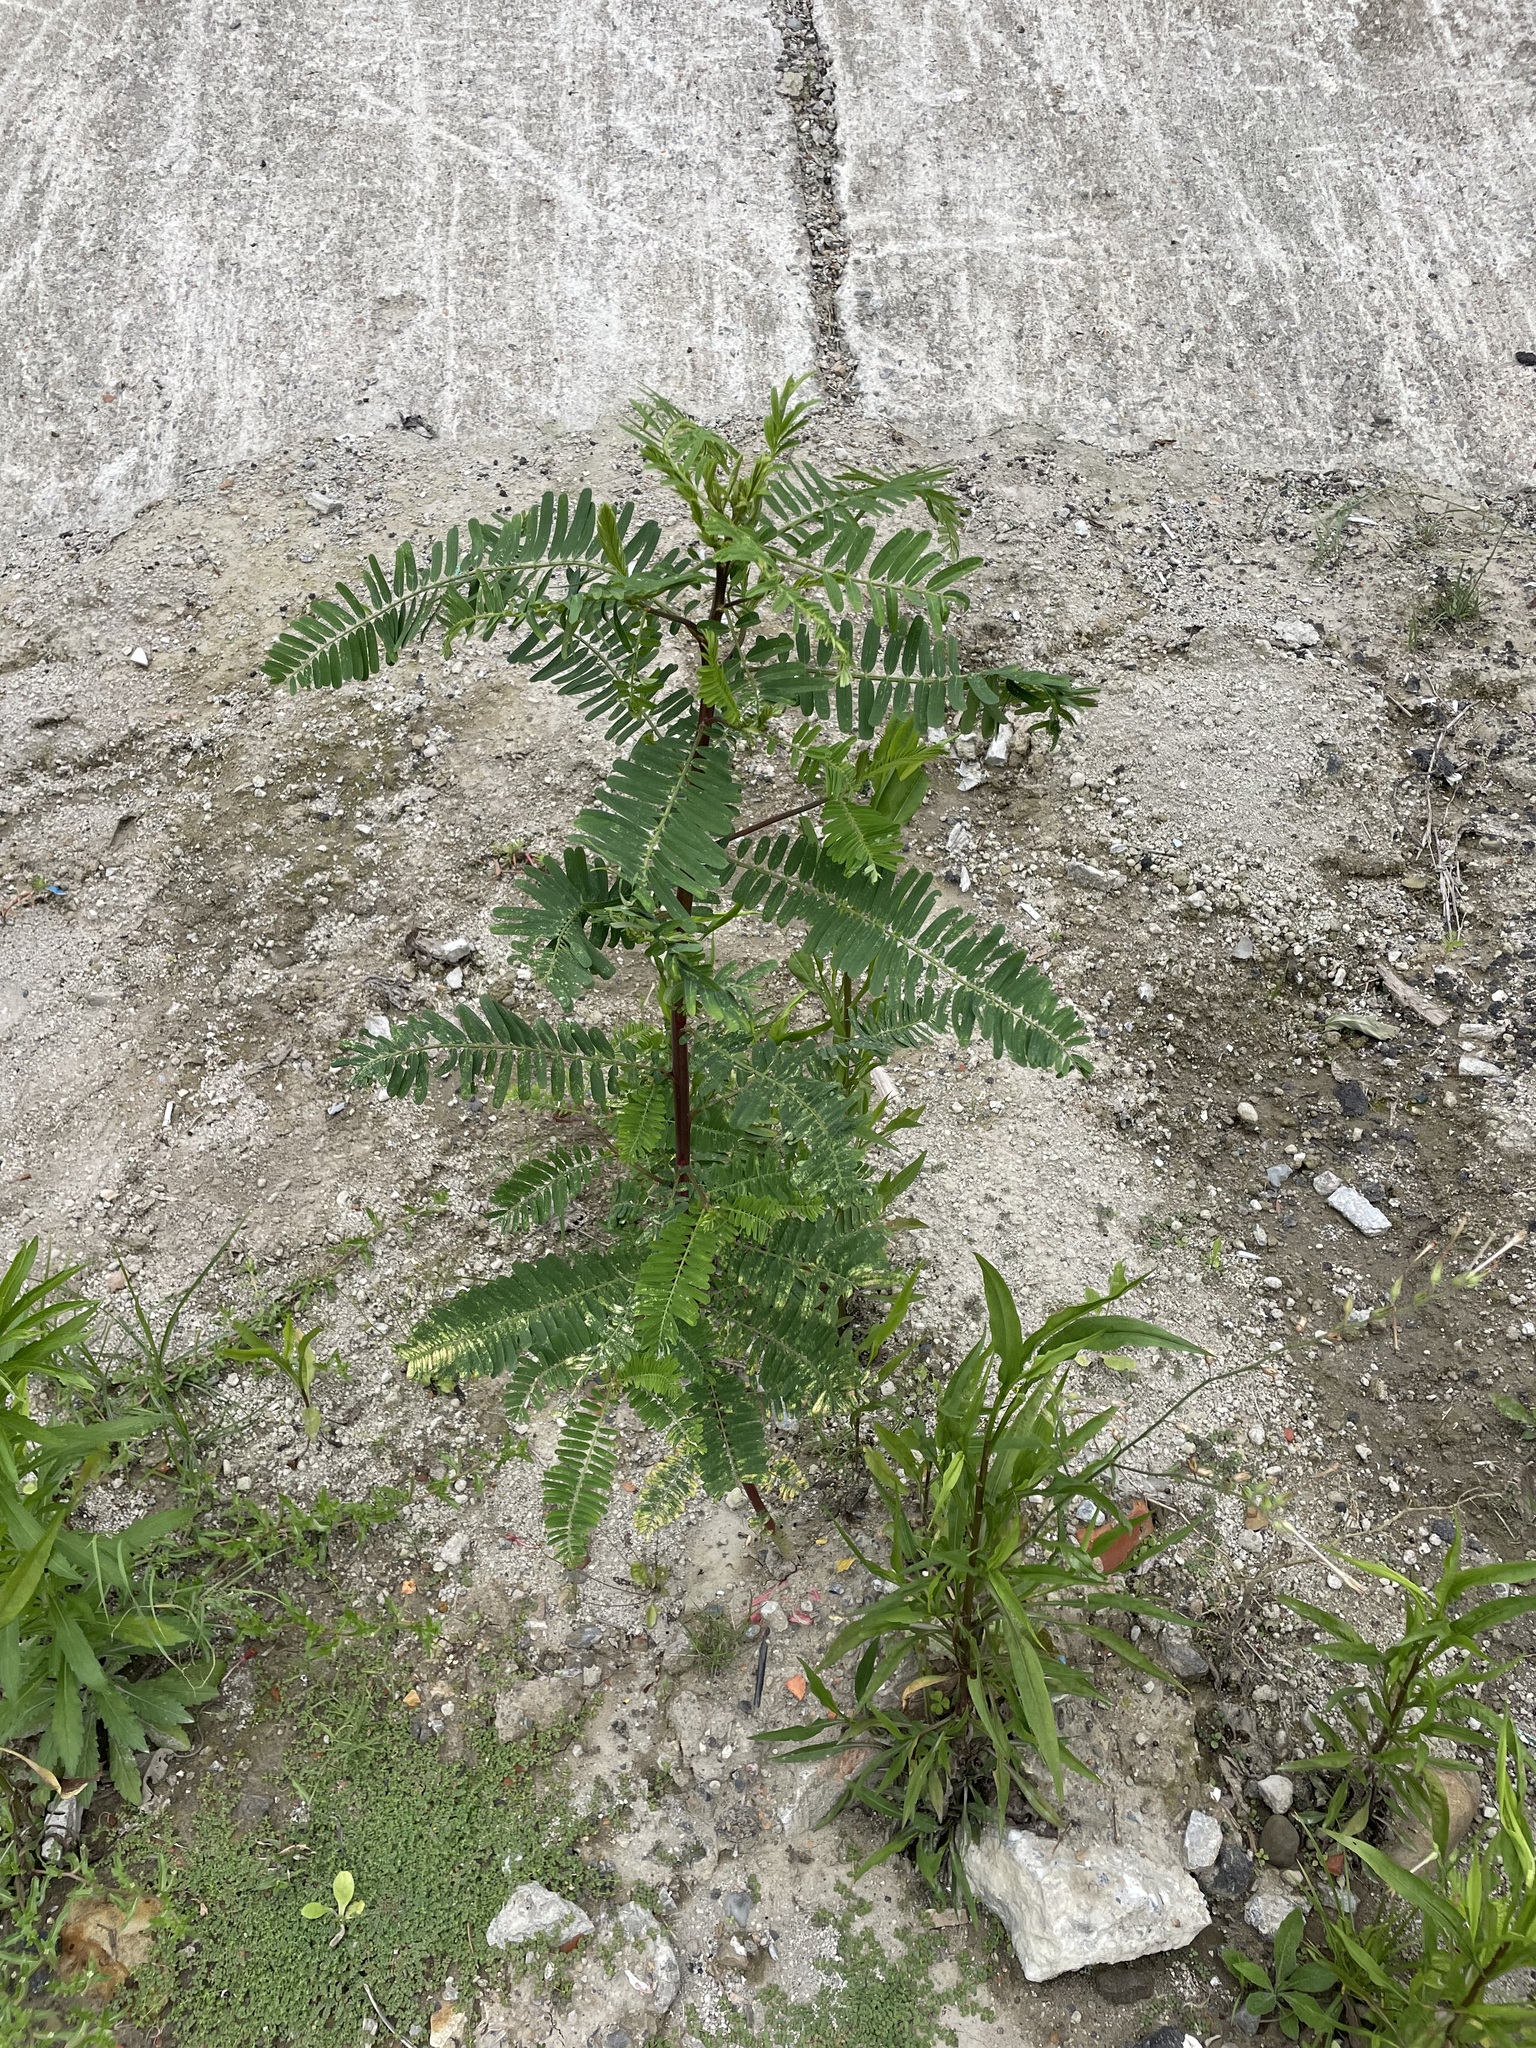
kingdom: Plantae
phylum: Tracheophyta
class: Magnoliopsida
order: Fabales
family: Fabaceae
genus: Sesbania
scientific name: Sesbania cannabina
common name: Canicha
